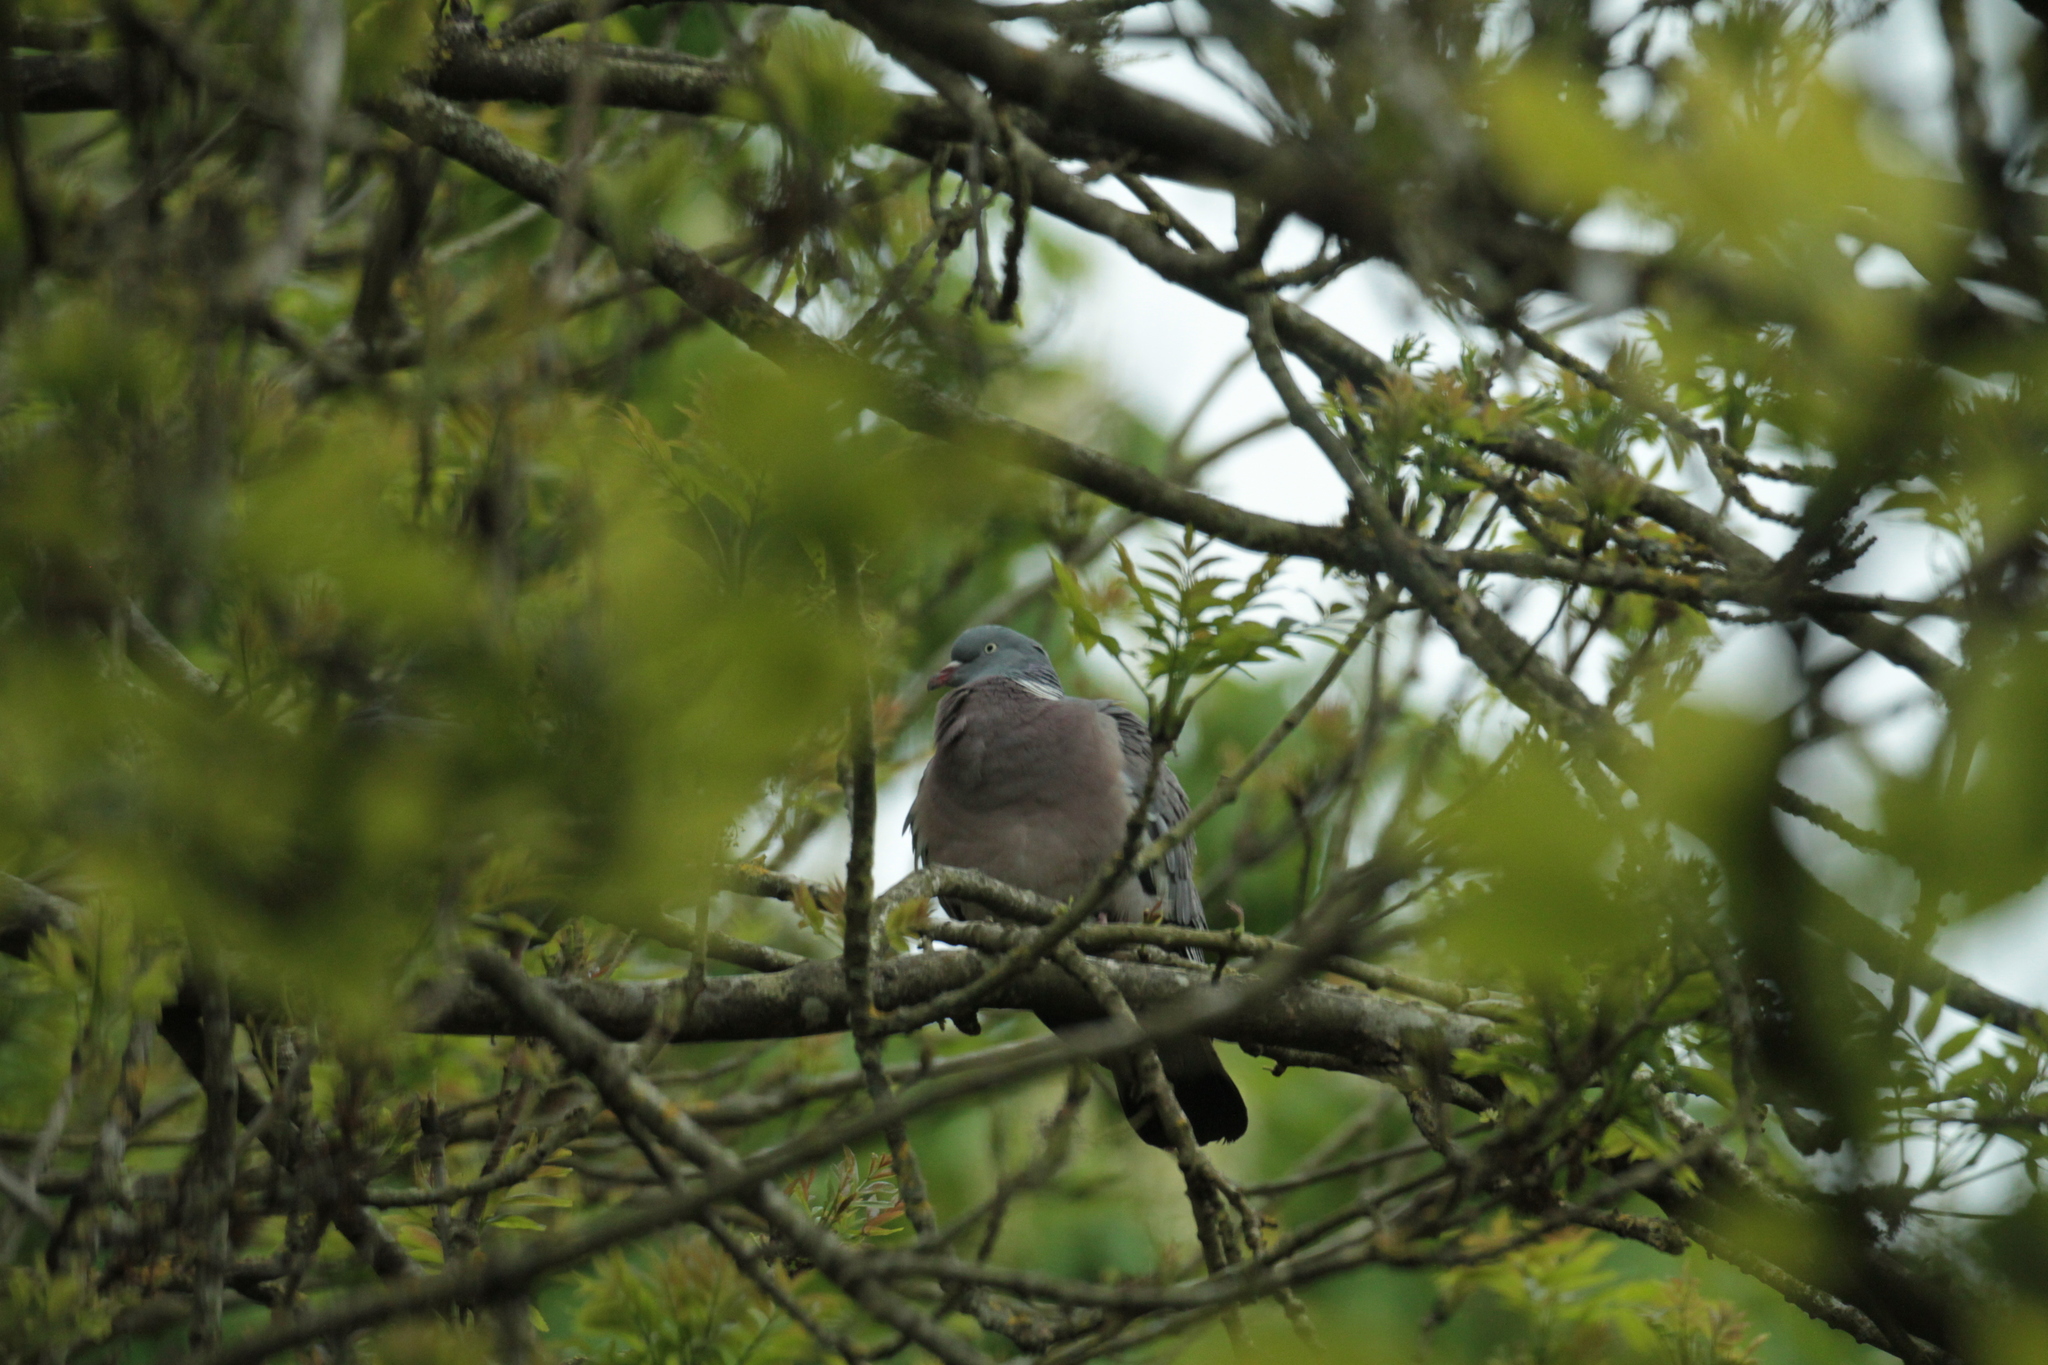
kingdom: Animalia
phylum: Chordata
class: Aves
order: Columbiformes
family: Columbidae
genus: Columba
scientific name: Columba palumbus
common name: Common wood pigeon
